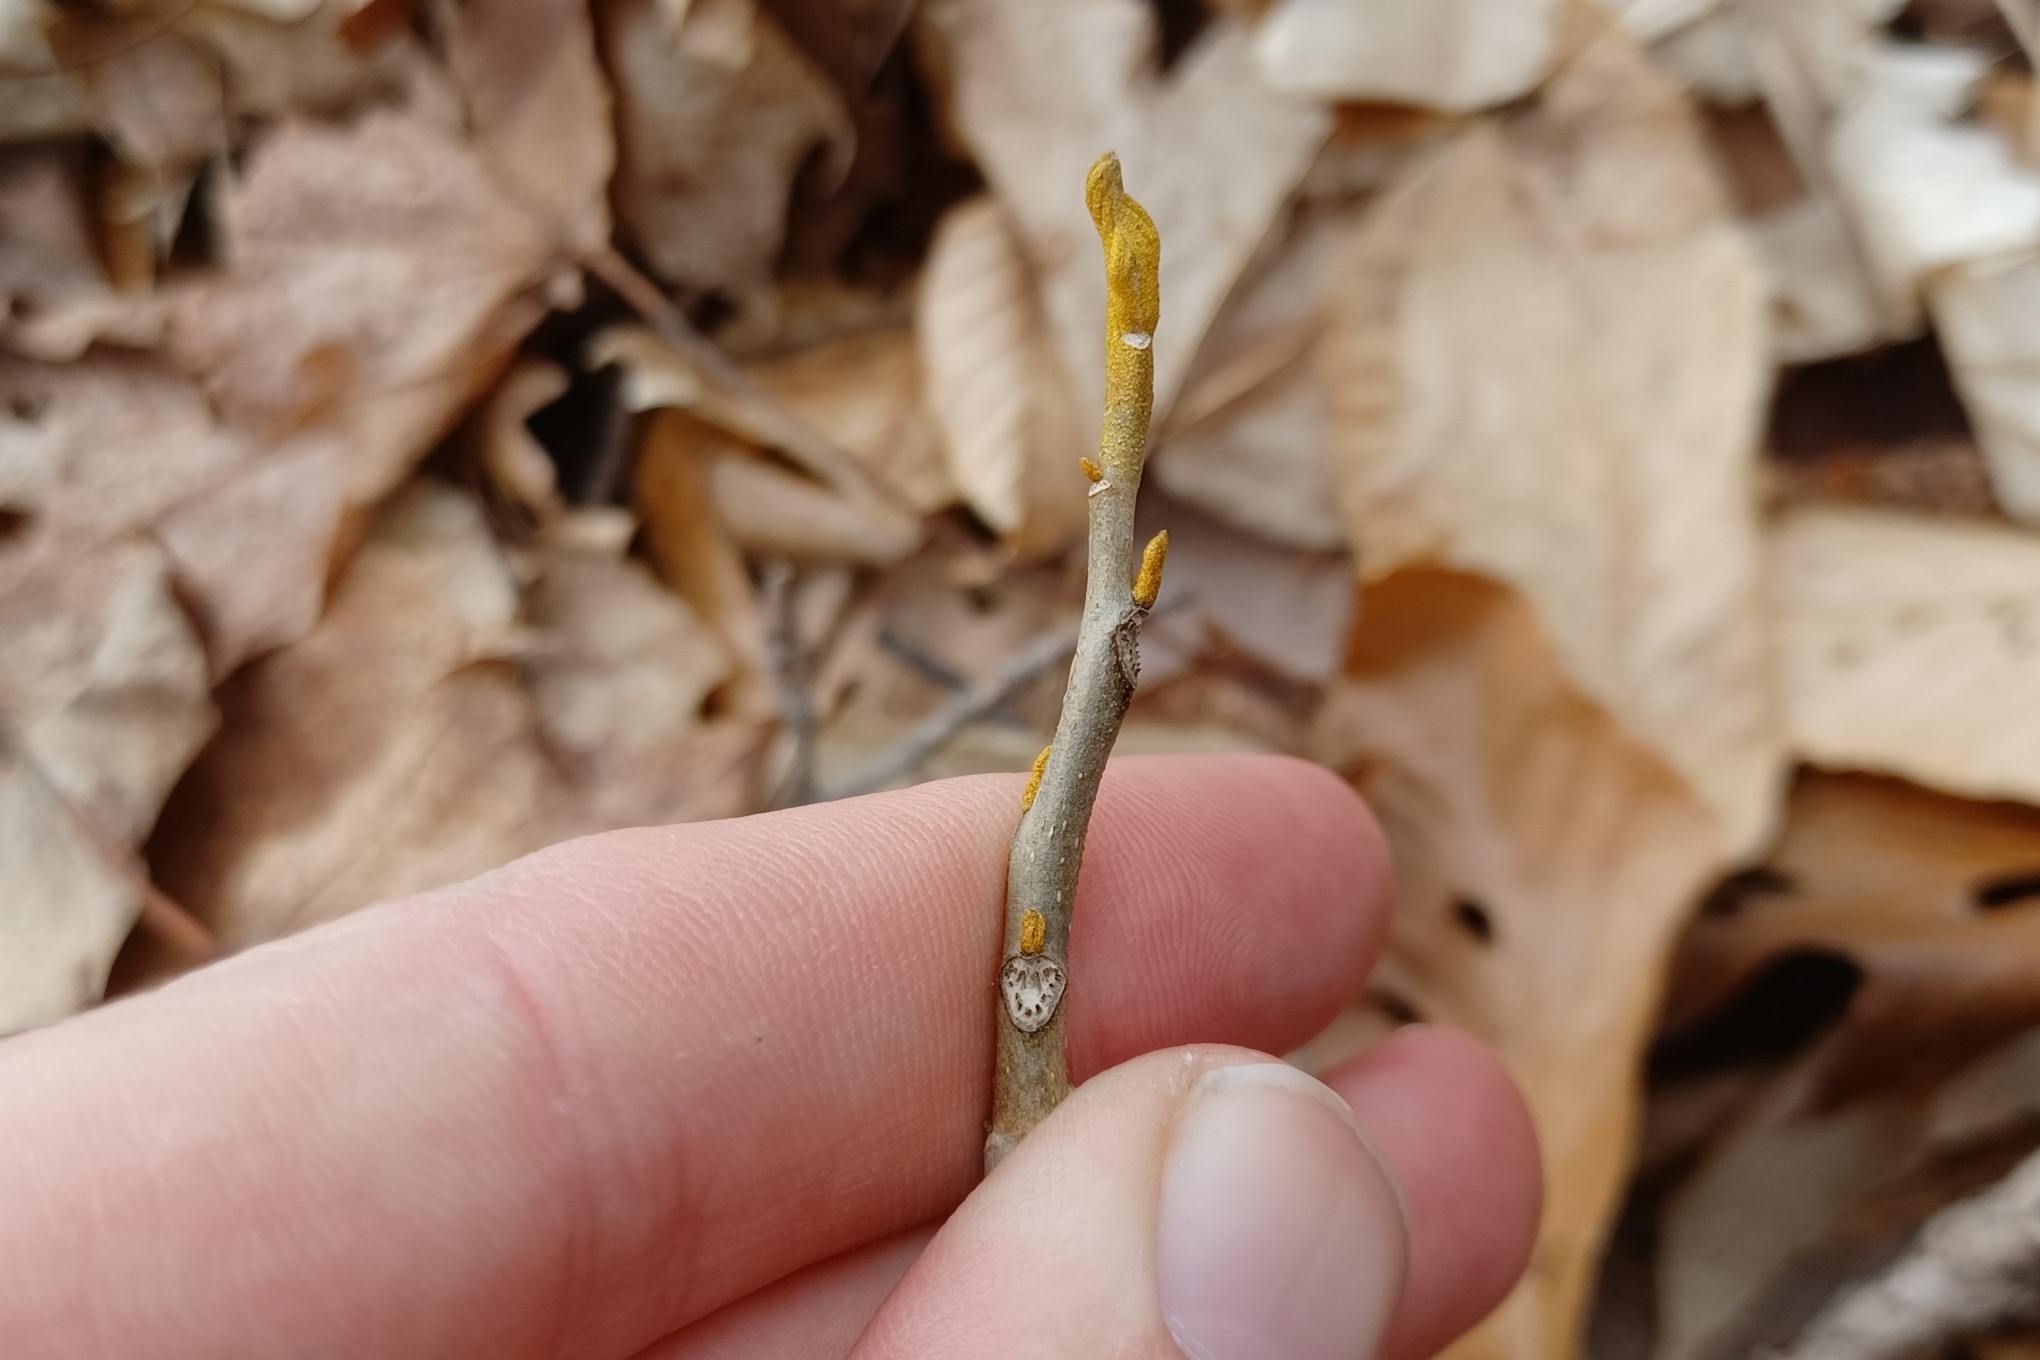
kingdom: Plantae
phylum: Tracheophyta
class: Magnoliopsida
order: Fagales
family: Juglandaceae
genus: Carya
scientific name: Carya cordiformis
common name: Bitternut hickory
